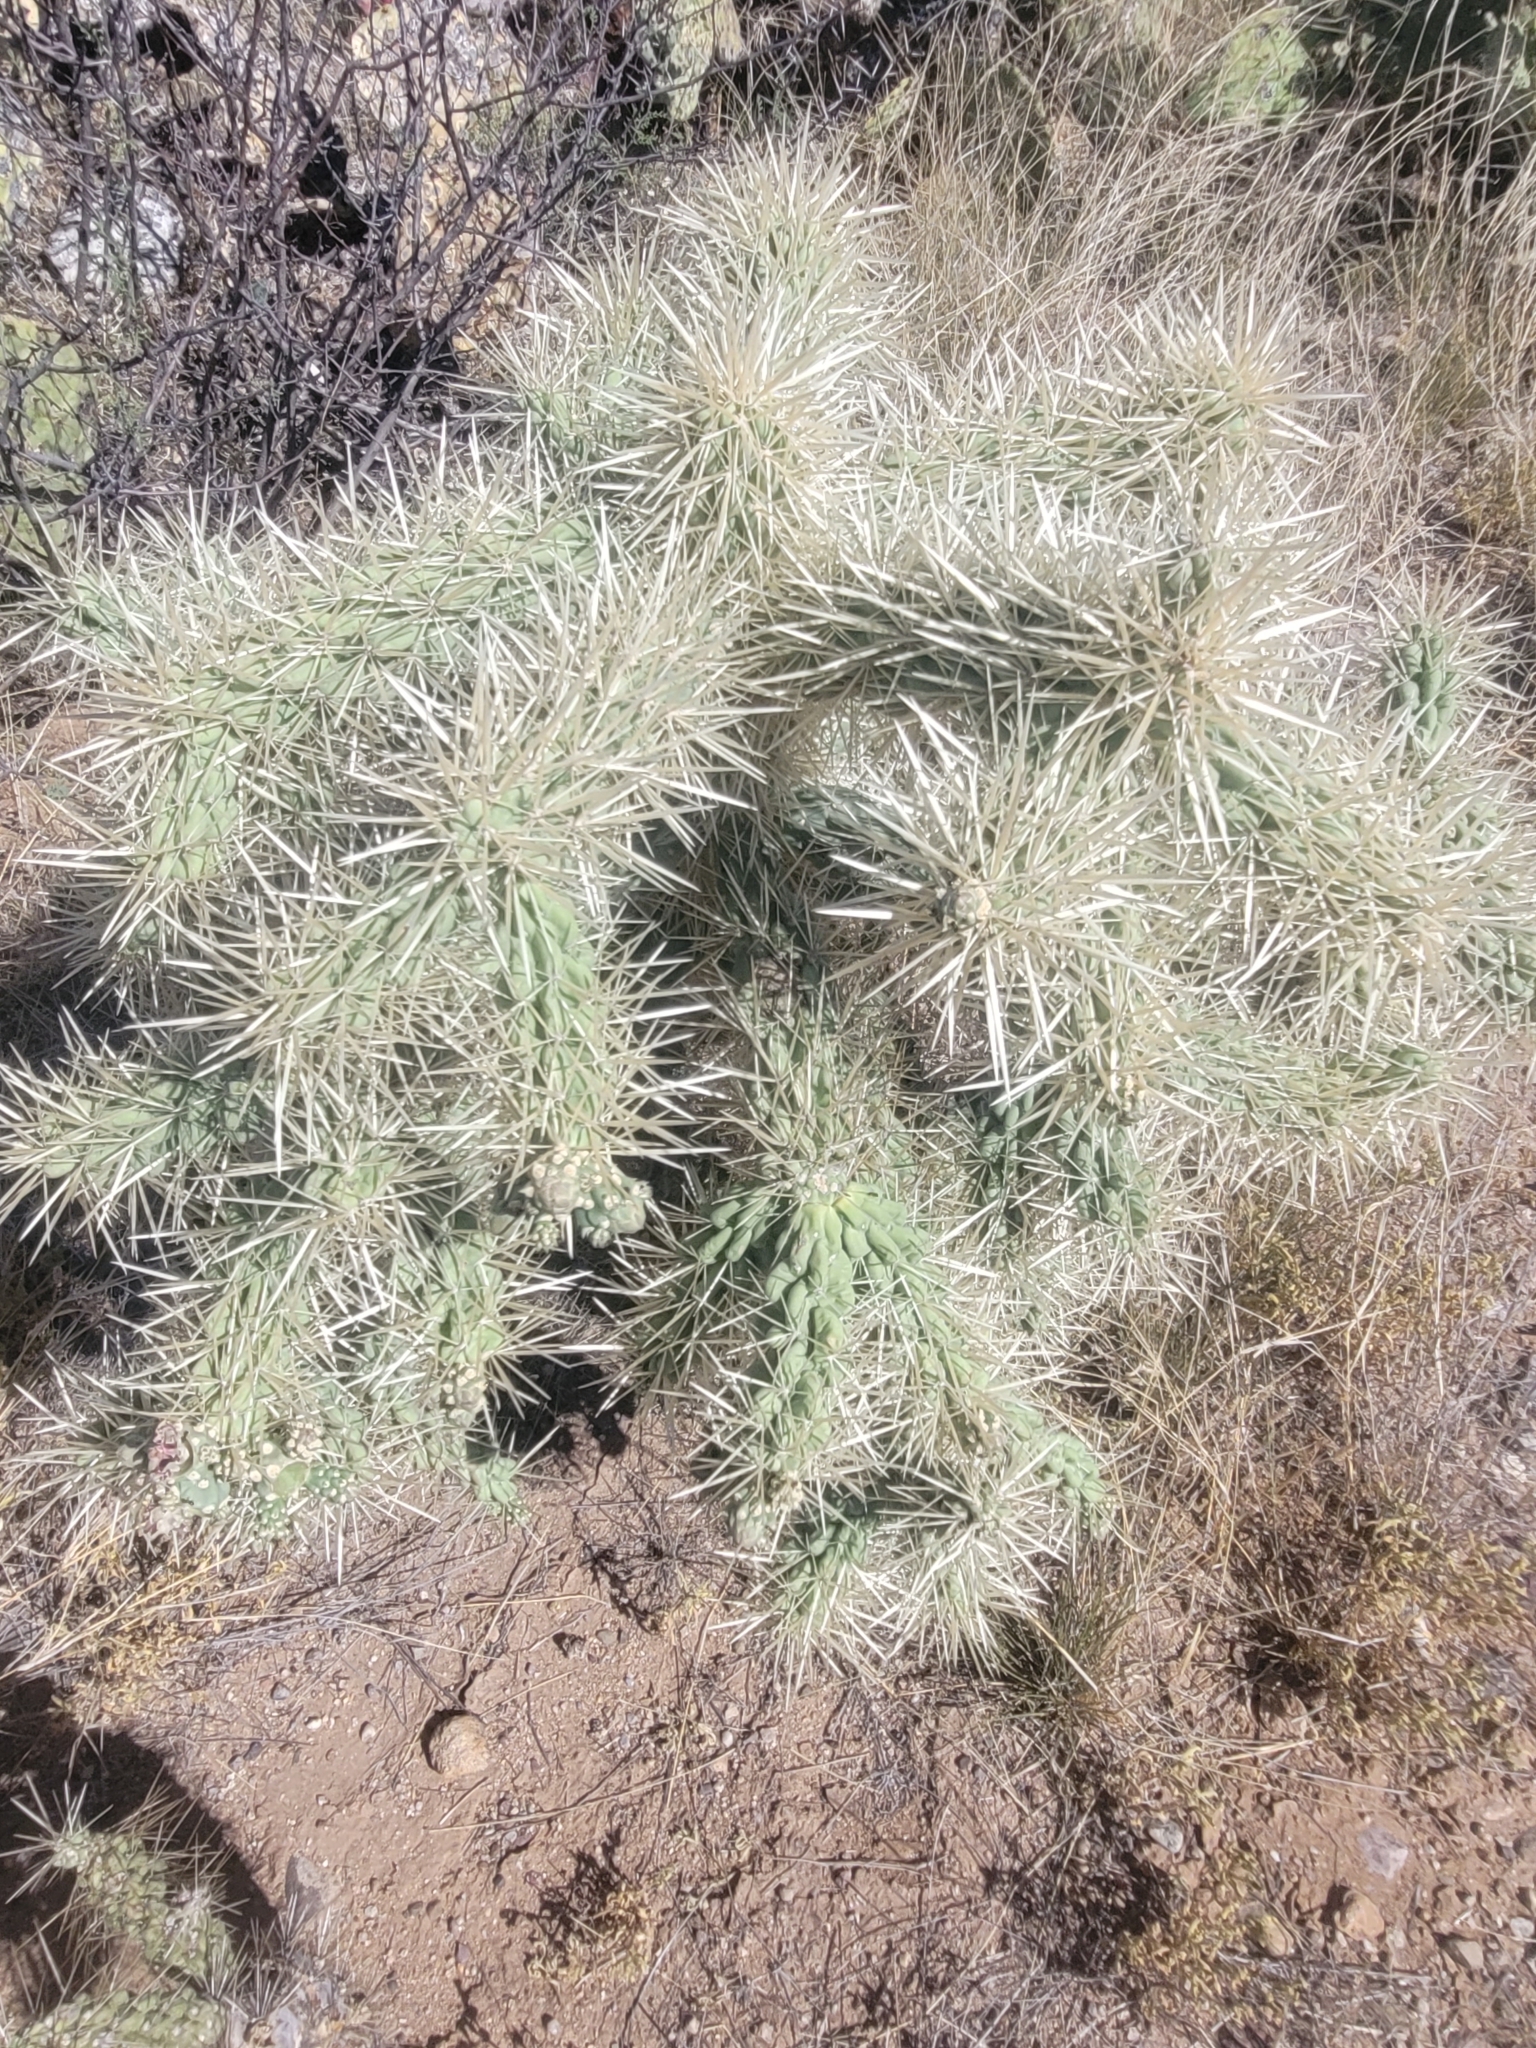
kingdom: Plantae
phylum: Tracheophyta
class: Magnoliopsida
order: Caryophyllales
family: Cactaceae
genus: Cylindropuntia
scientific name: Cylindropuntia fulgida
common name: Jumping cholla
